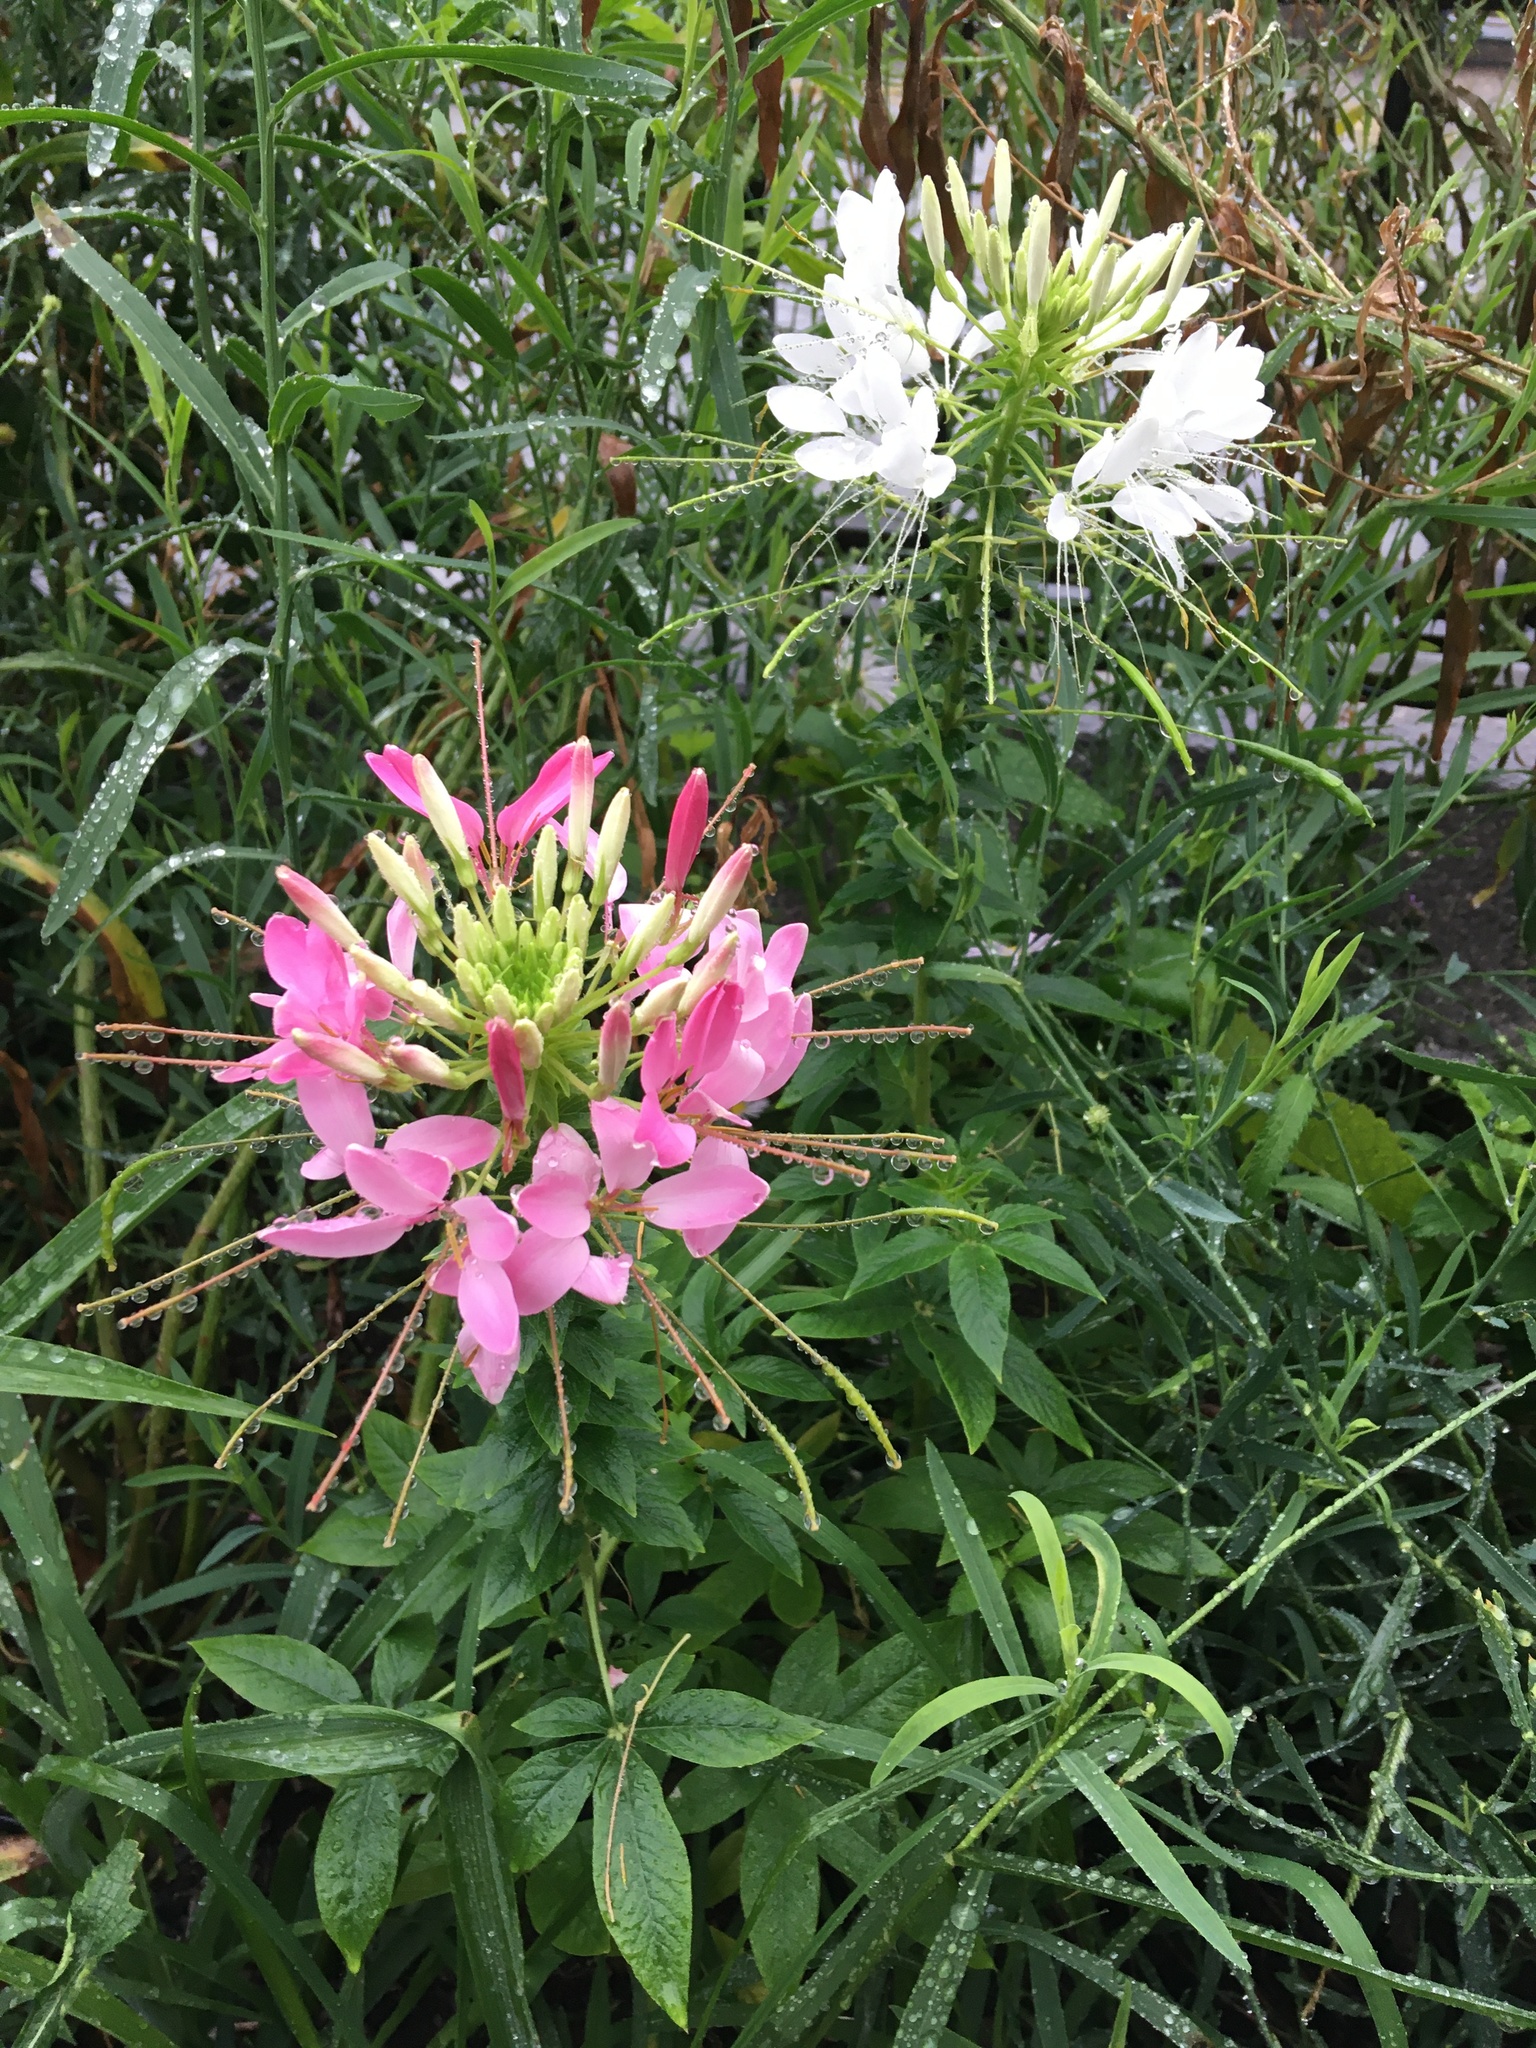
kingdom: Plantae
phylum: Tracheophyta
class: Magnoliopsida
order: Brassicales
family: Cleomaceae
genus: Tarenaya
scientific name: Tarenaya houtteana
